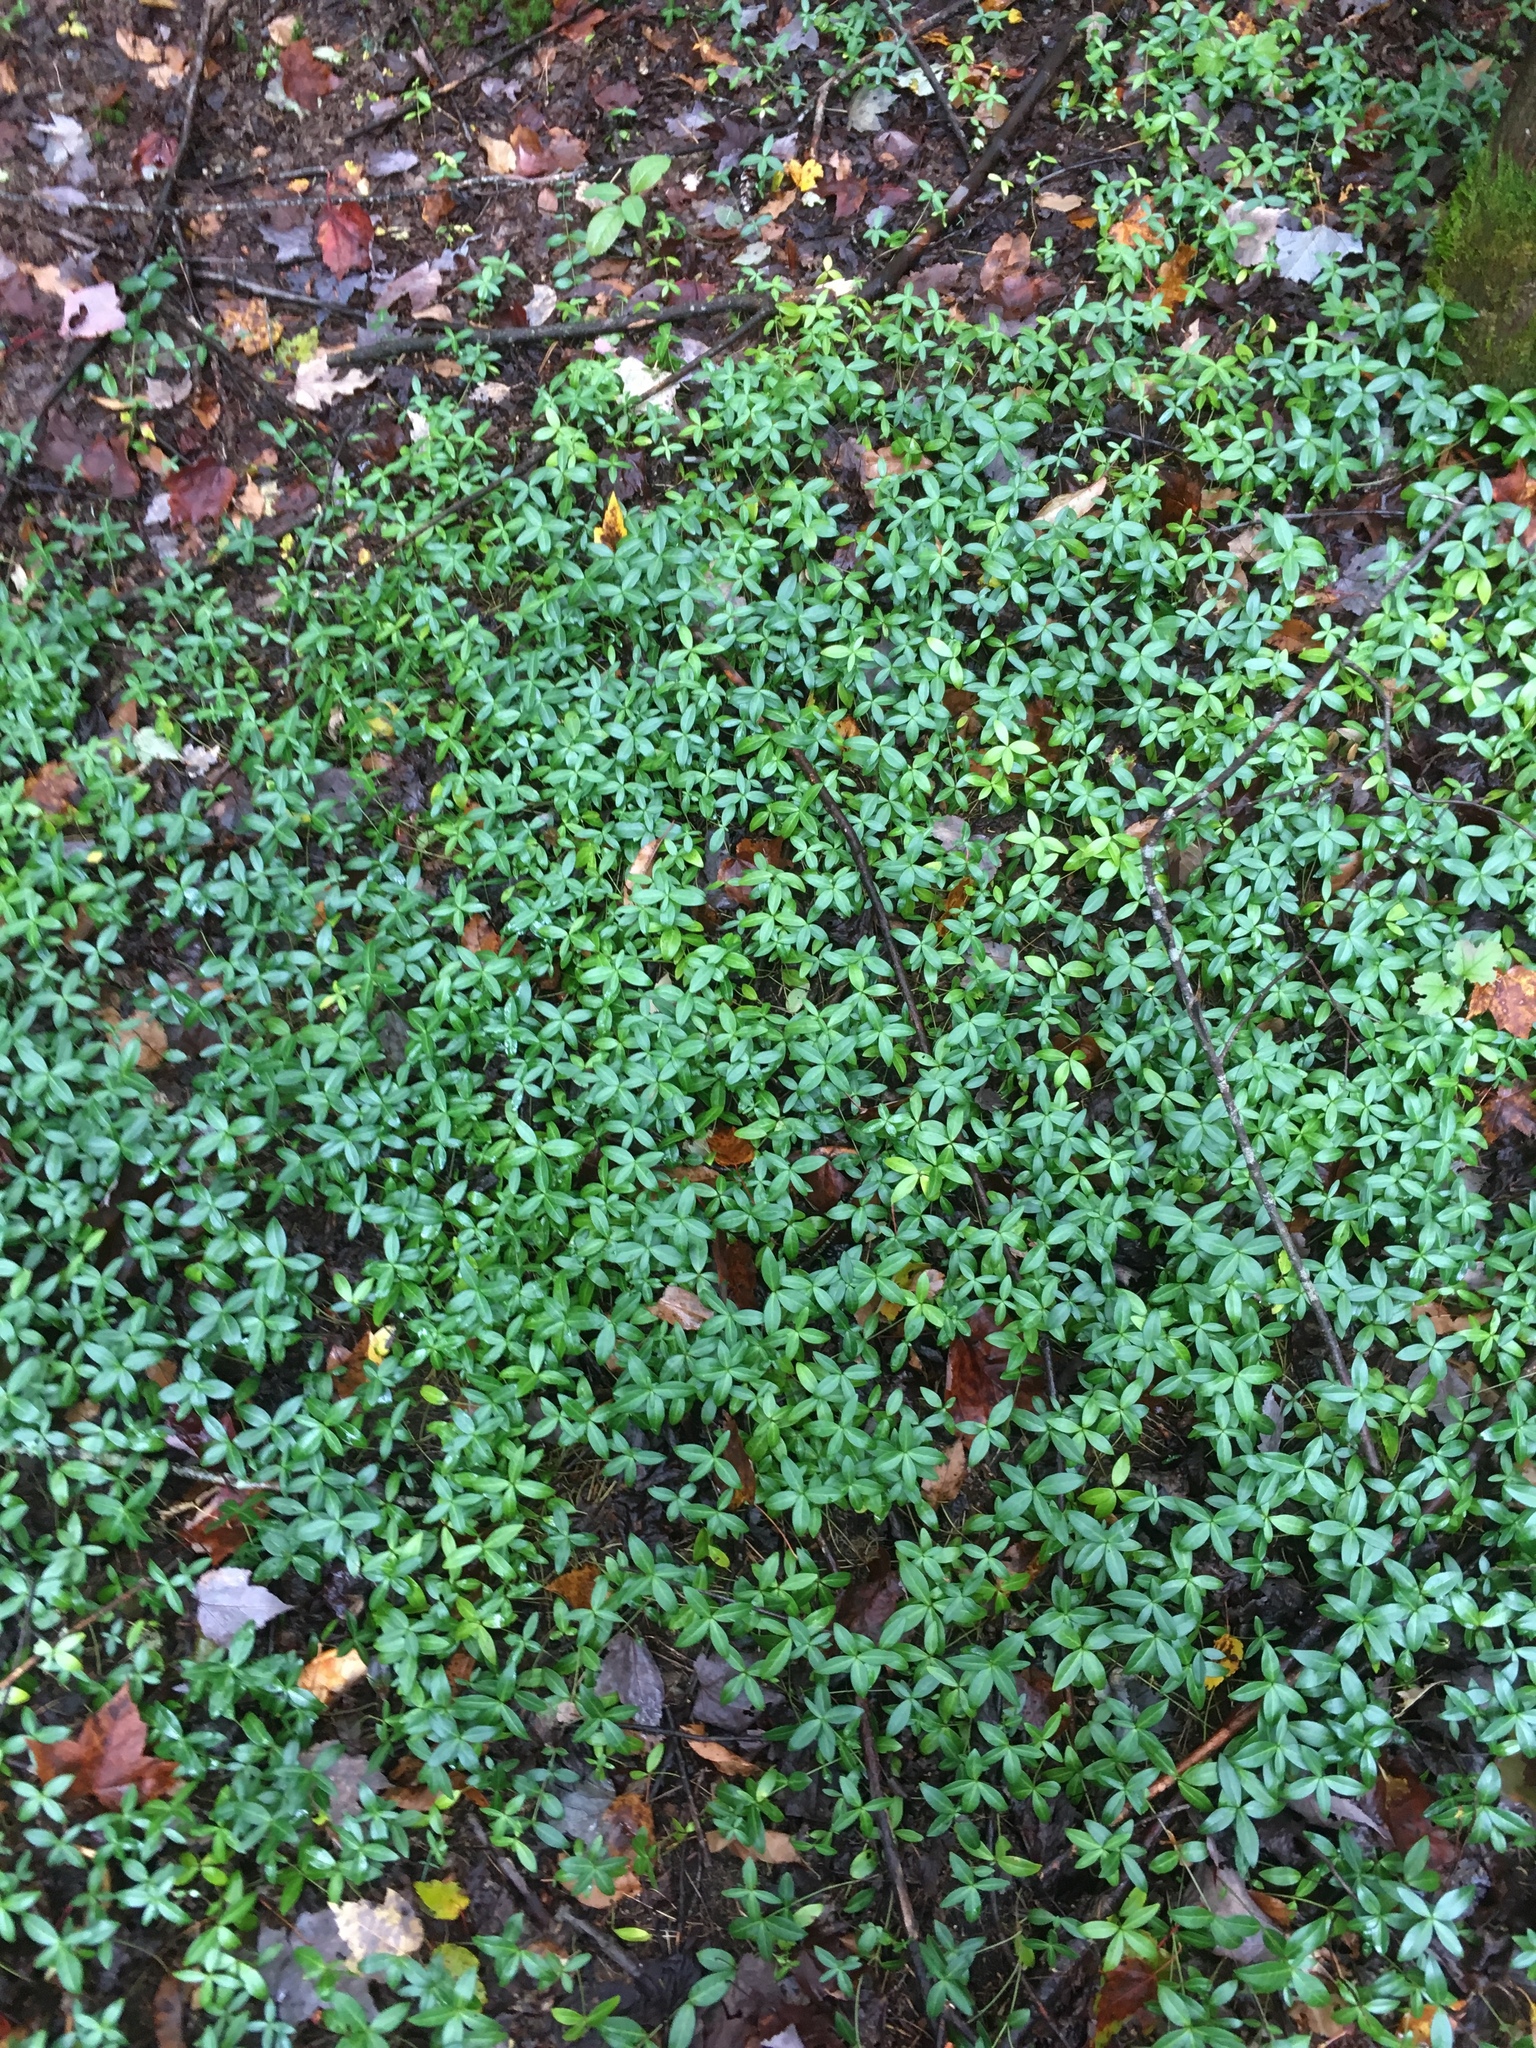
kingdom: Plantae
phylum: Tracheophyta
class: Magnoliopsida
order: Gentianales
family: Apocynaceae
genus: Vinca
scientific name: Vinca minor
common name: Lesser periwinkle
